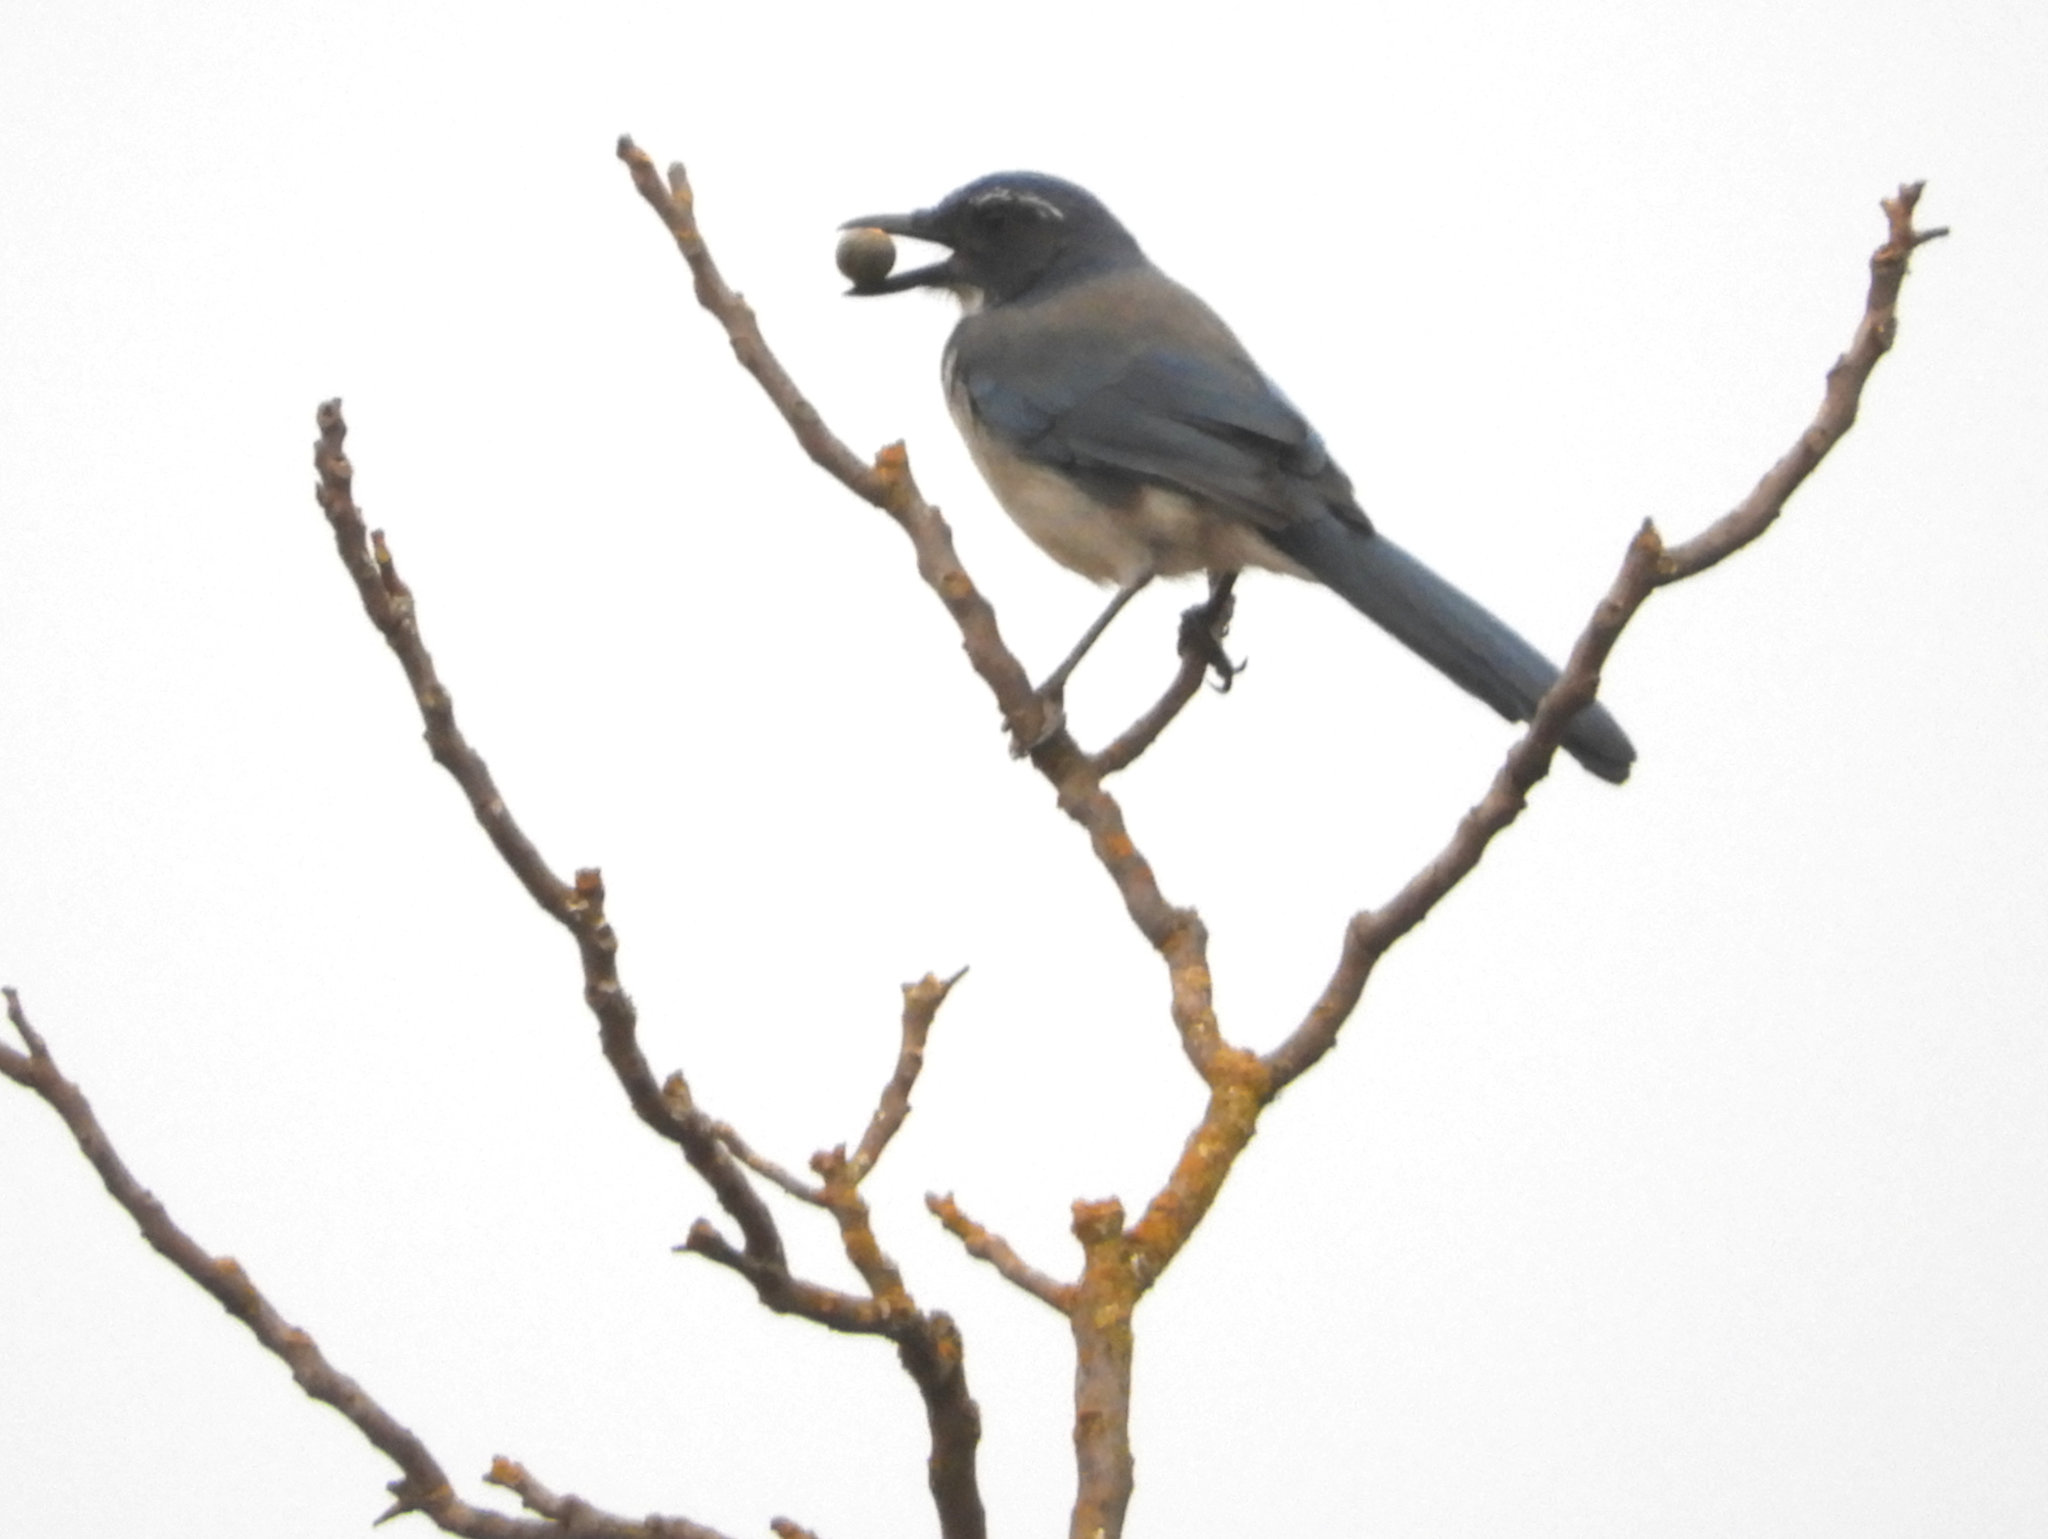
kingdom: Animalia
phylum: Chordata
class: Aves
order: Passeriformes
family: Corvidae
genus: Aphelocoma
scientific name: Aphelocoma californica
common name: California scrub-jay
